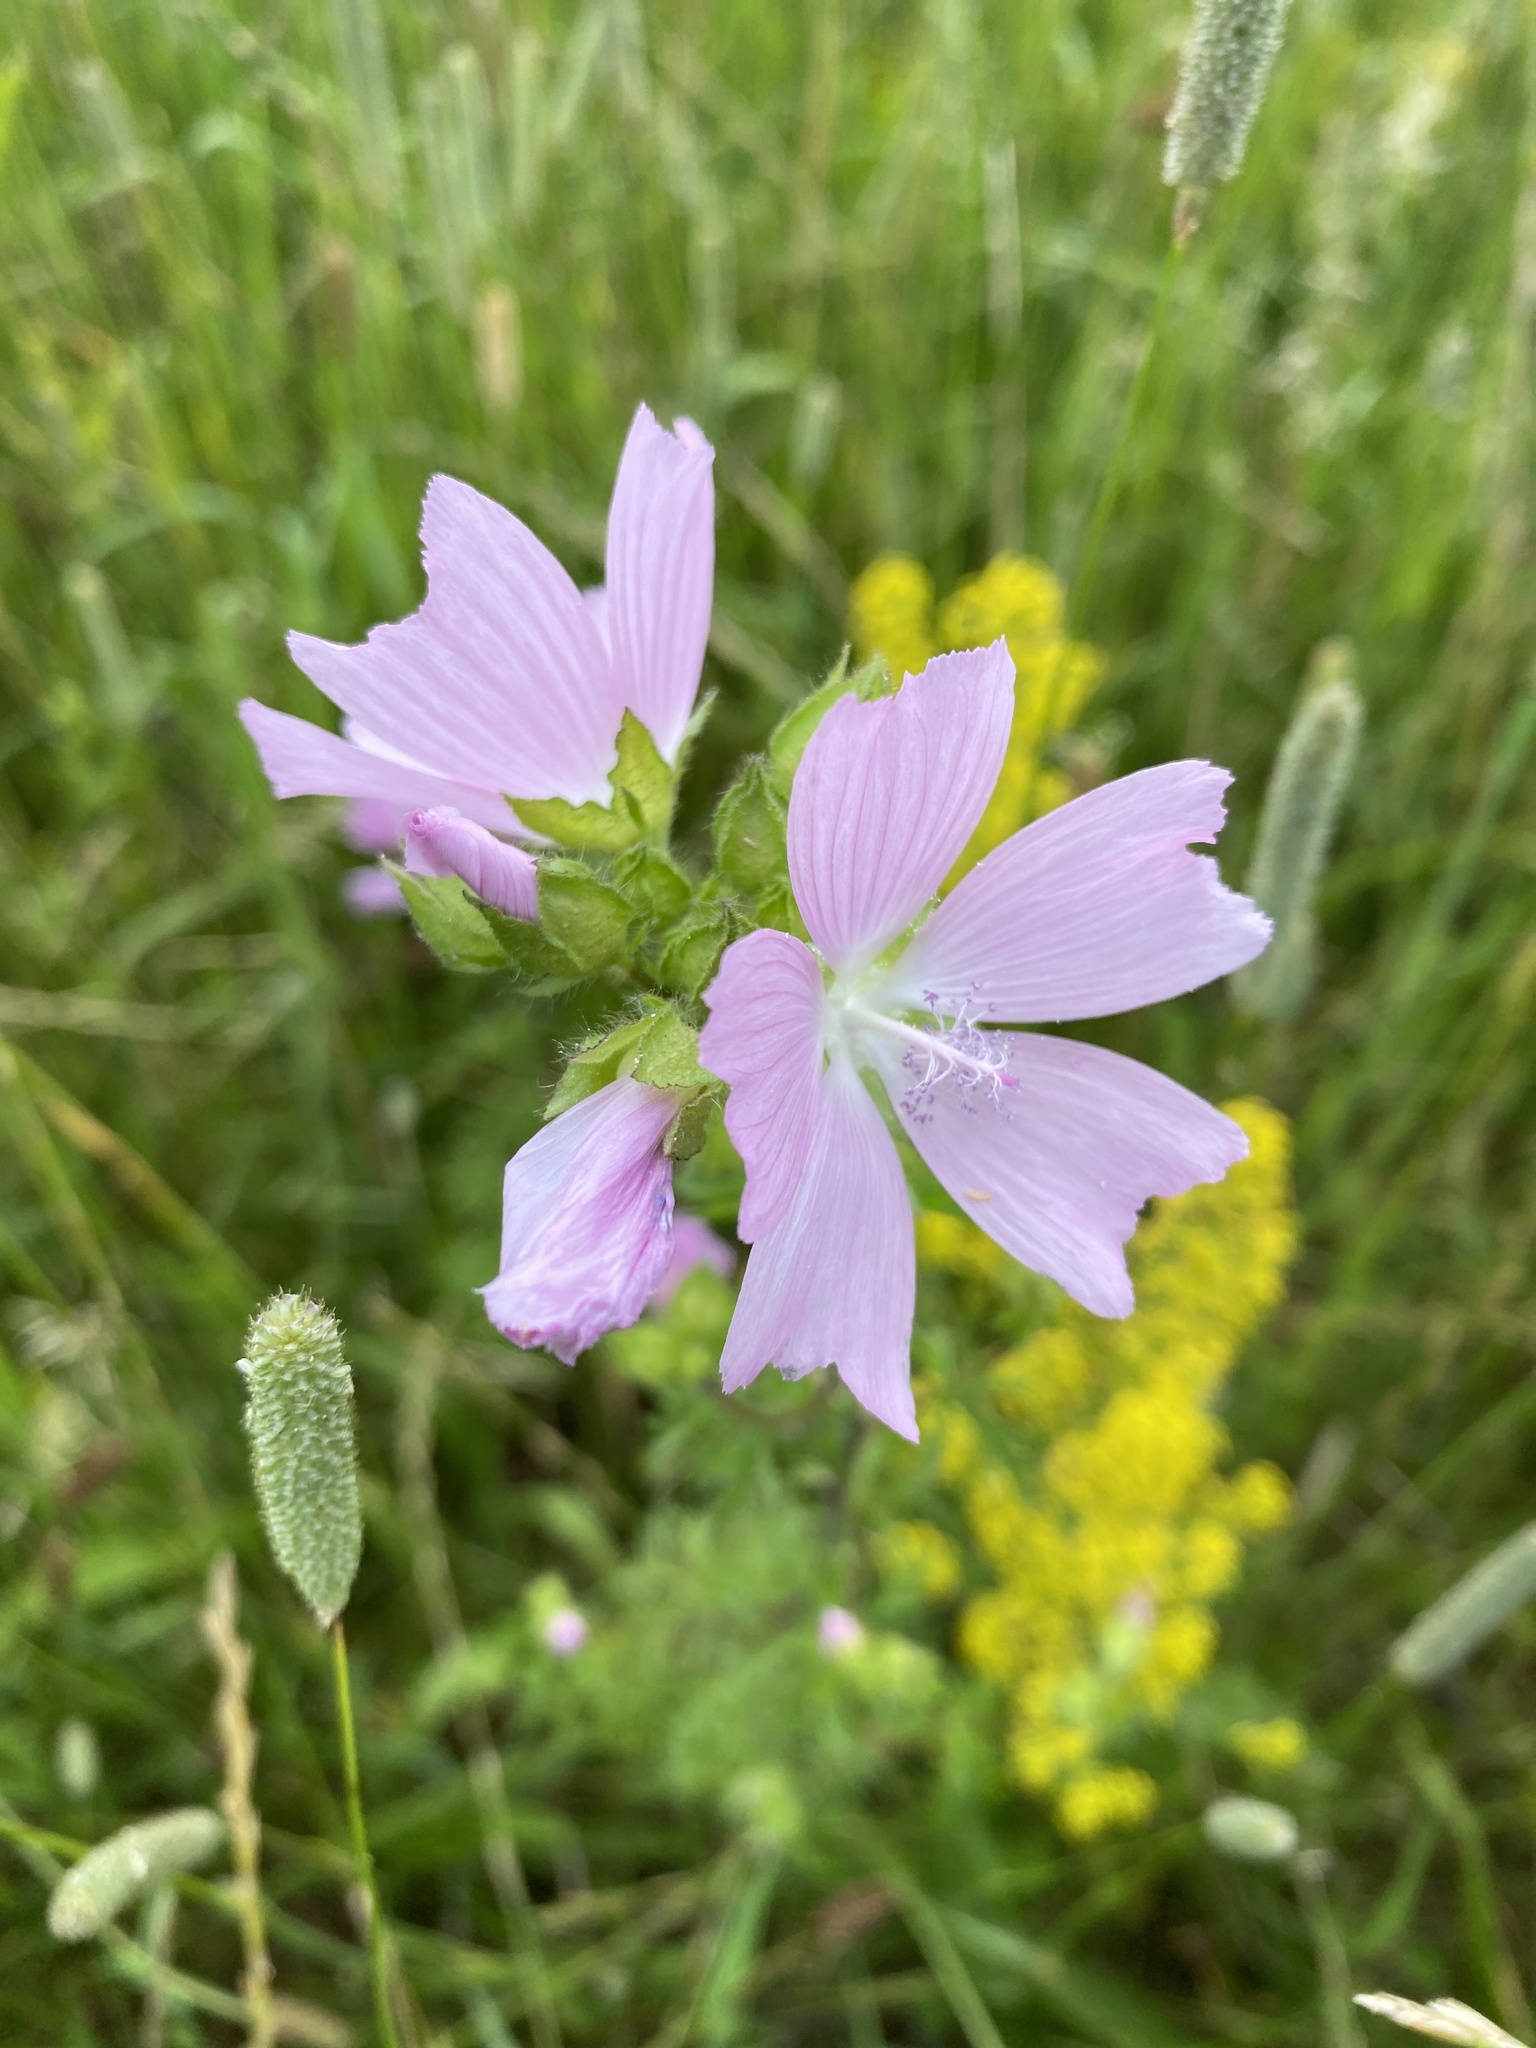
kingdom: Plantae
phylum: Tracheophyta
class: Magnoliopsida
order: Malvales
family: Malvaceae
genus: Malva
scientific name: Malva moschata
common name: Musk mallow
